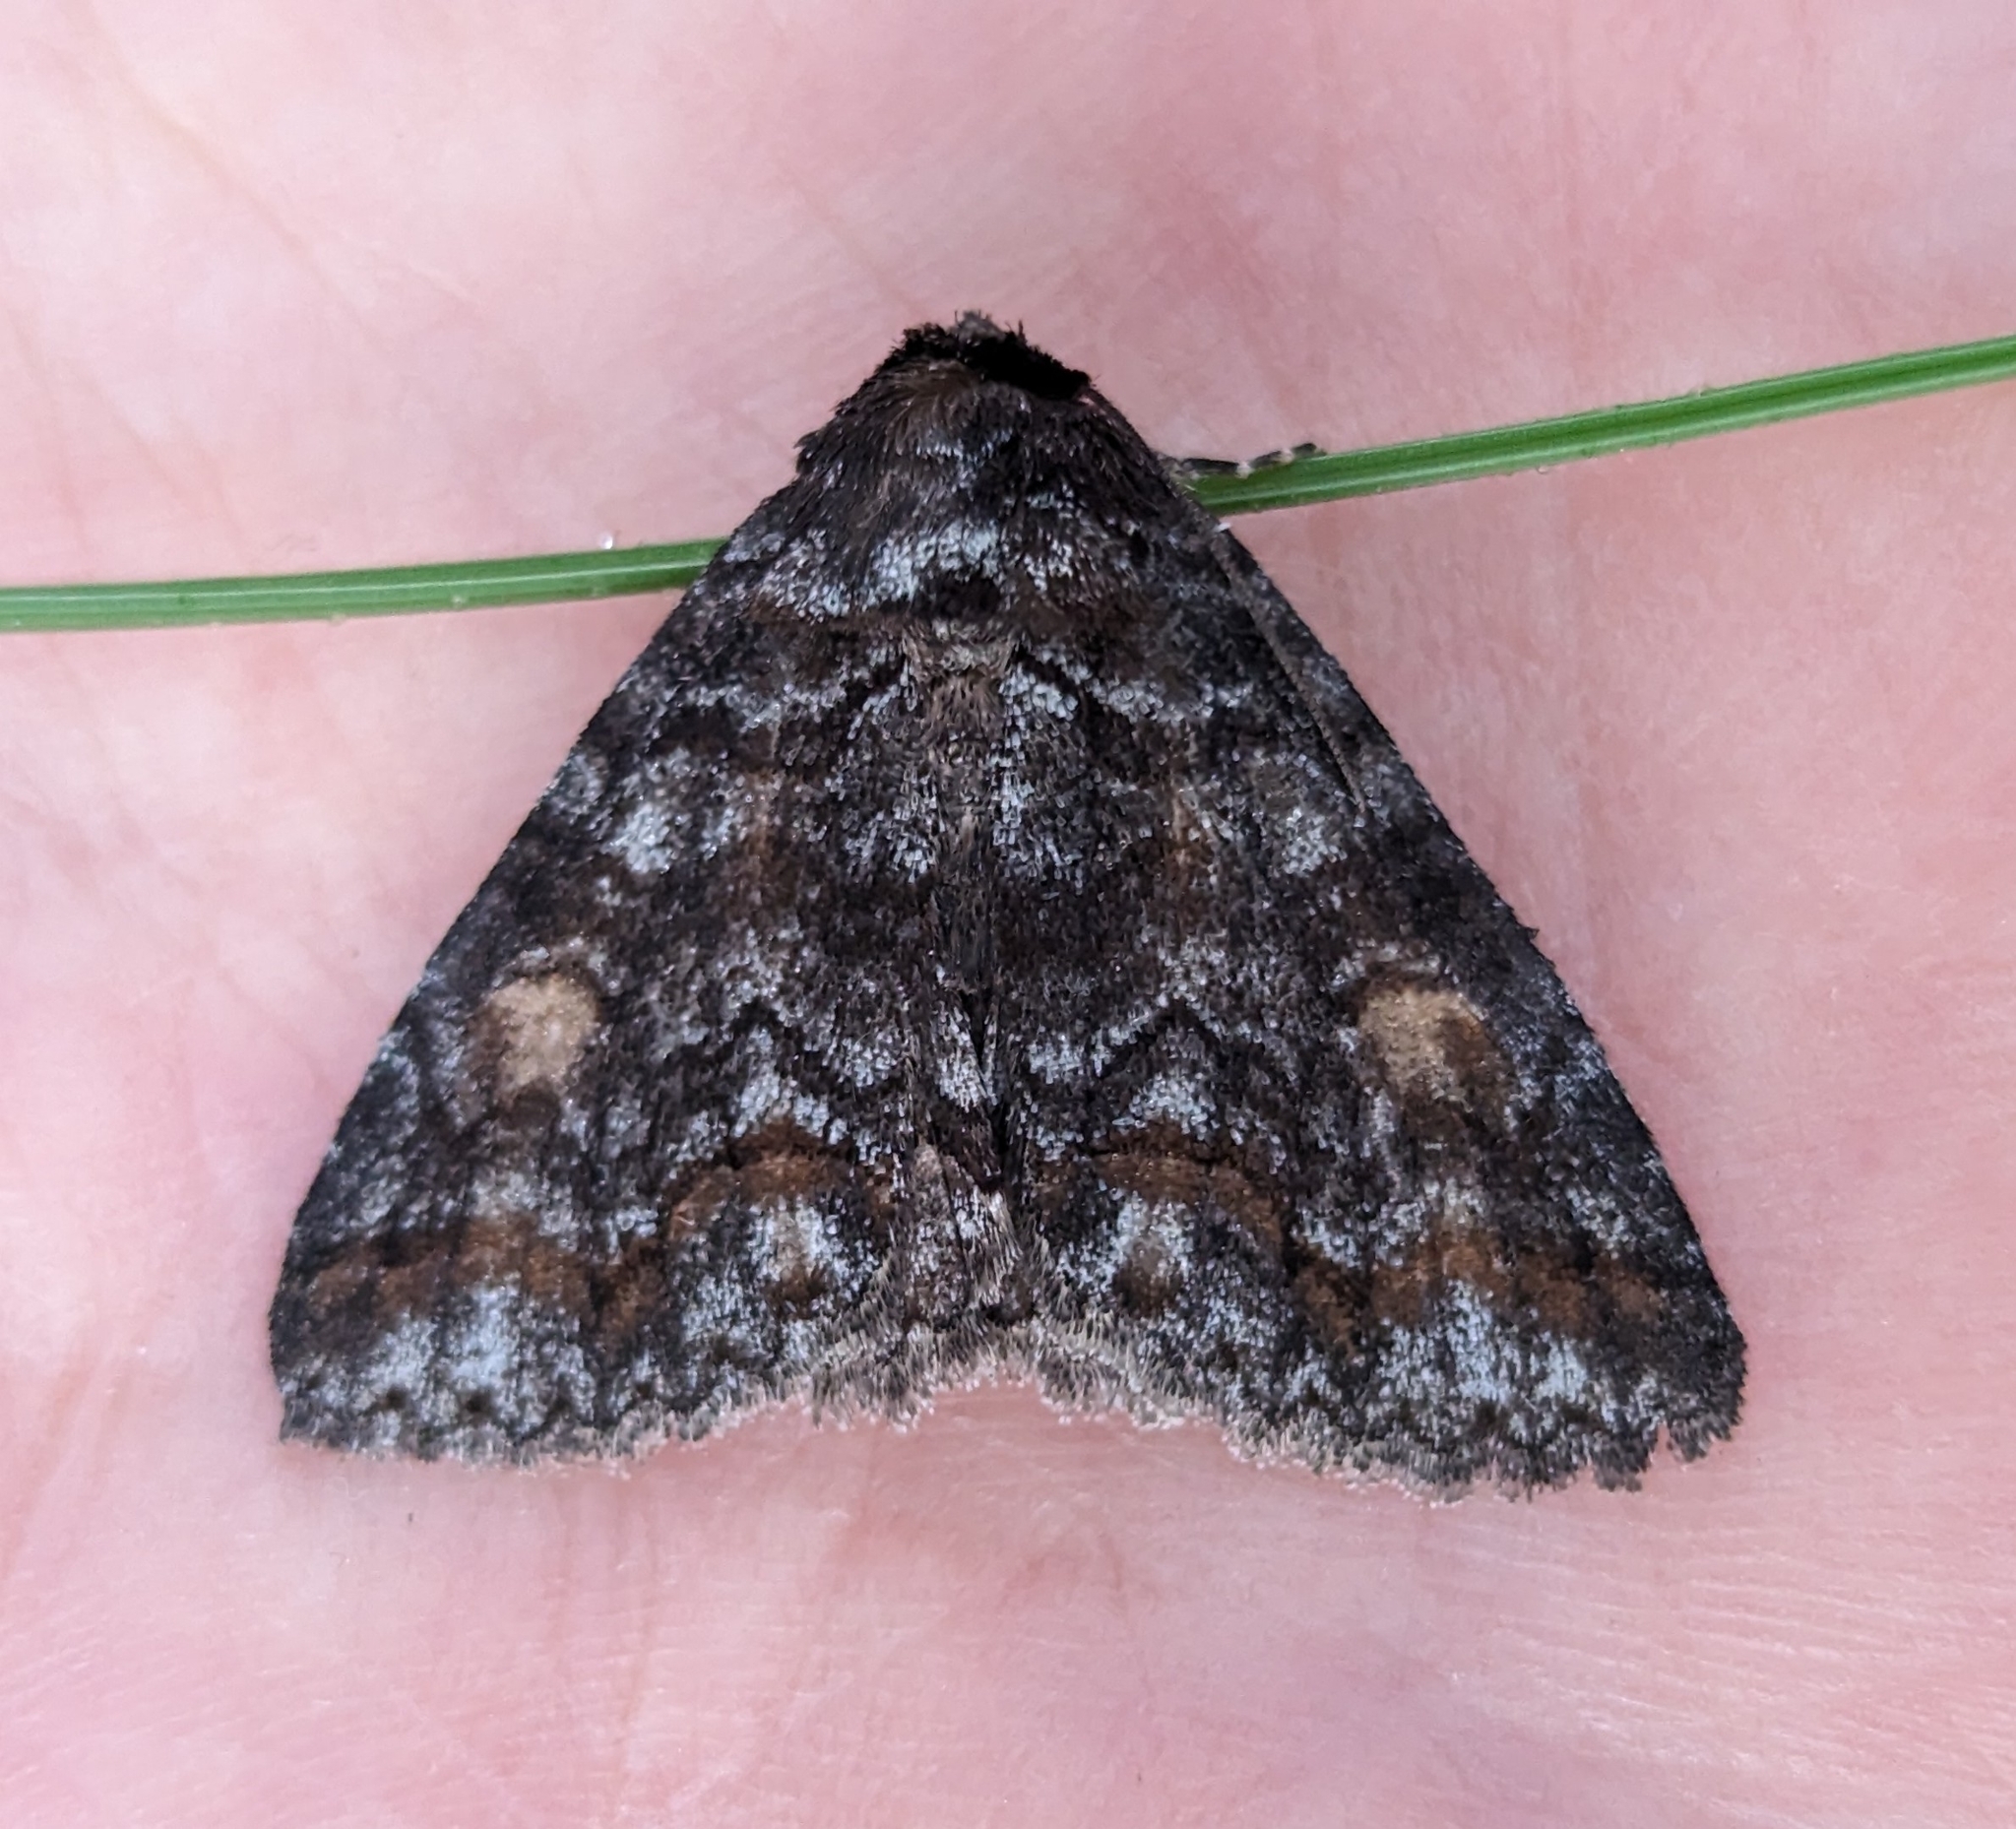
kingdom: Animalia
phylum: Arthropoda
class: Insecta
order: Lepidoptera
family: Erebidae
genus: Zale
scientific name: Zale duplicata
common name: Pine false looper moth
